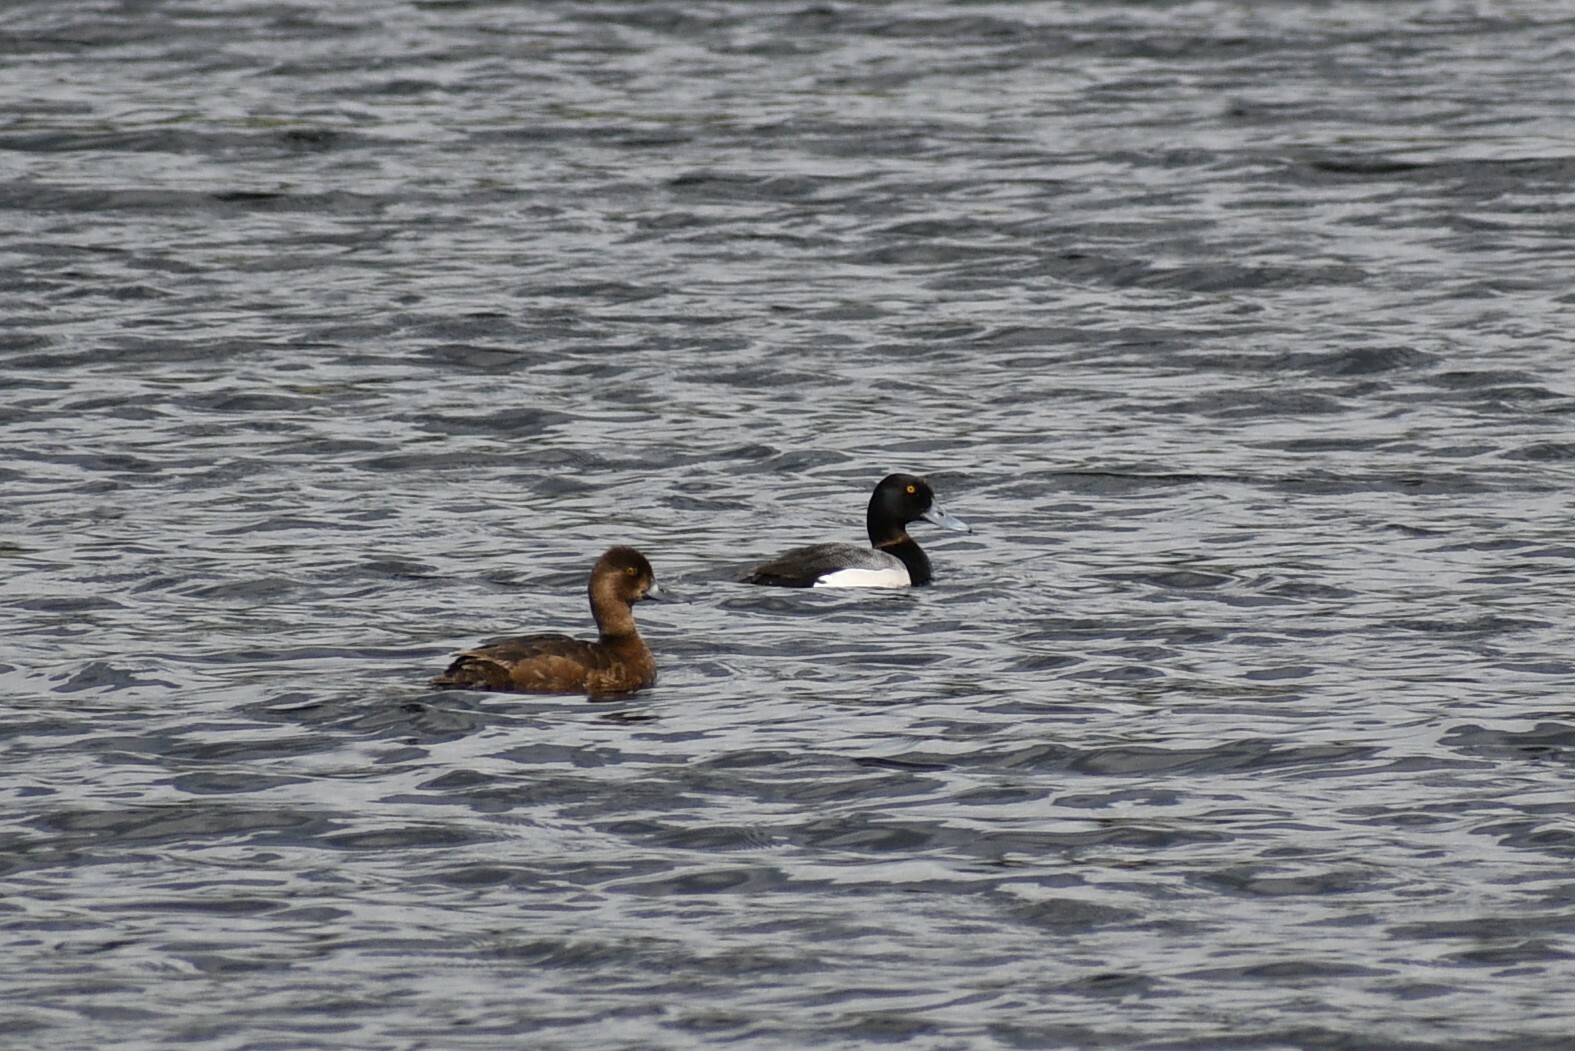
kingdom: Animalia
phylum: Chordata
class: Aves
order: Anseriformes
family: Anatidae
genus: Aythya
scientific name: Aythya affinis
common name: Lesser scaup
